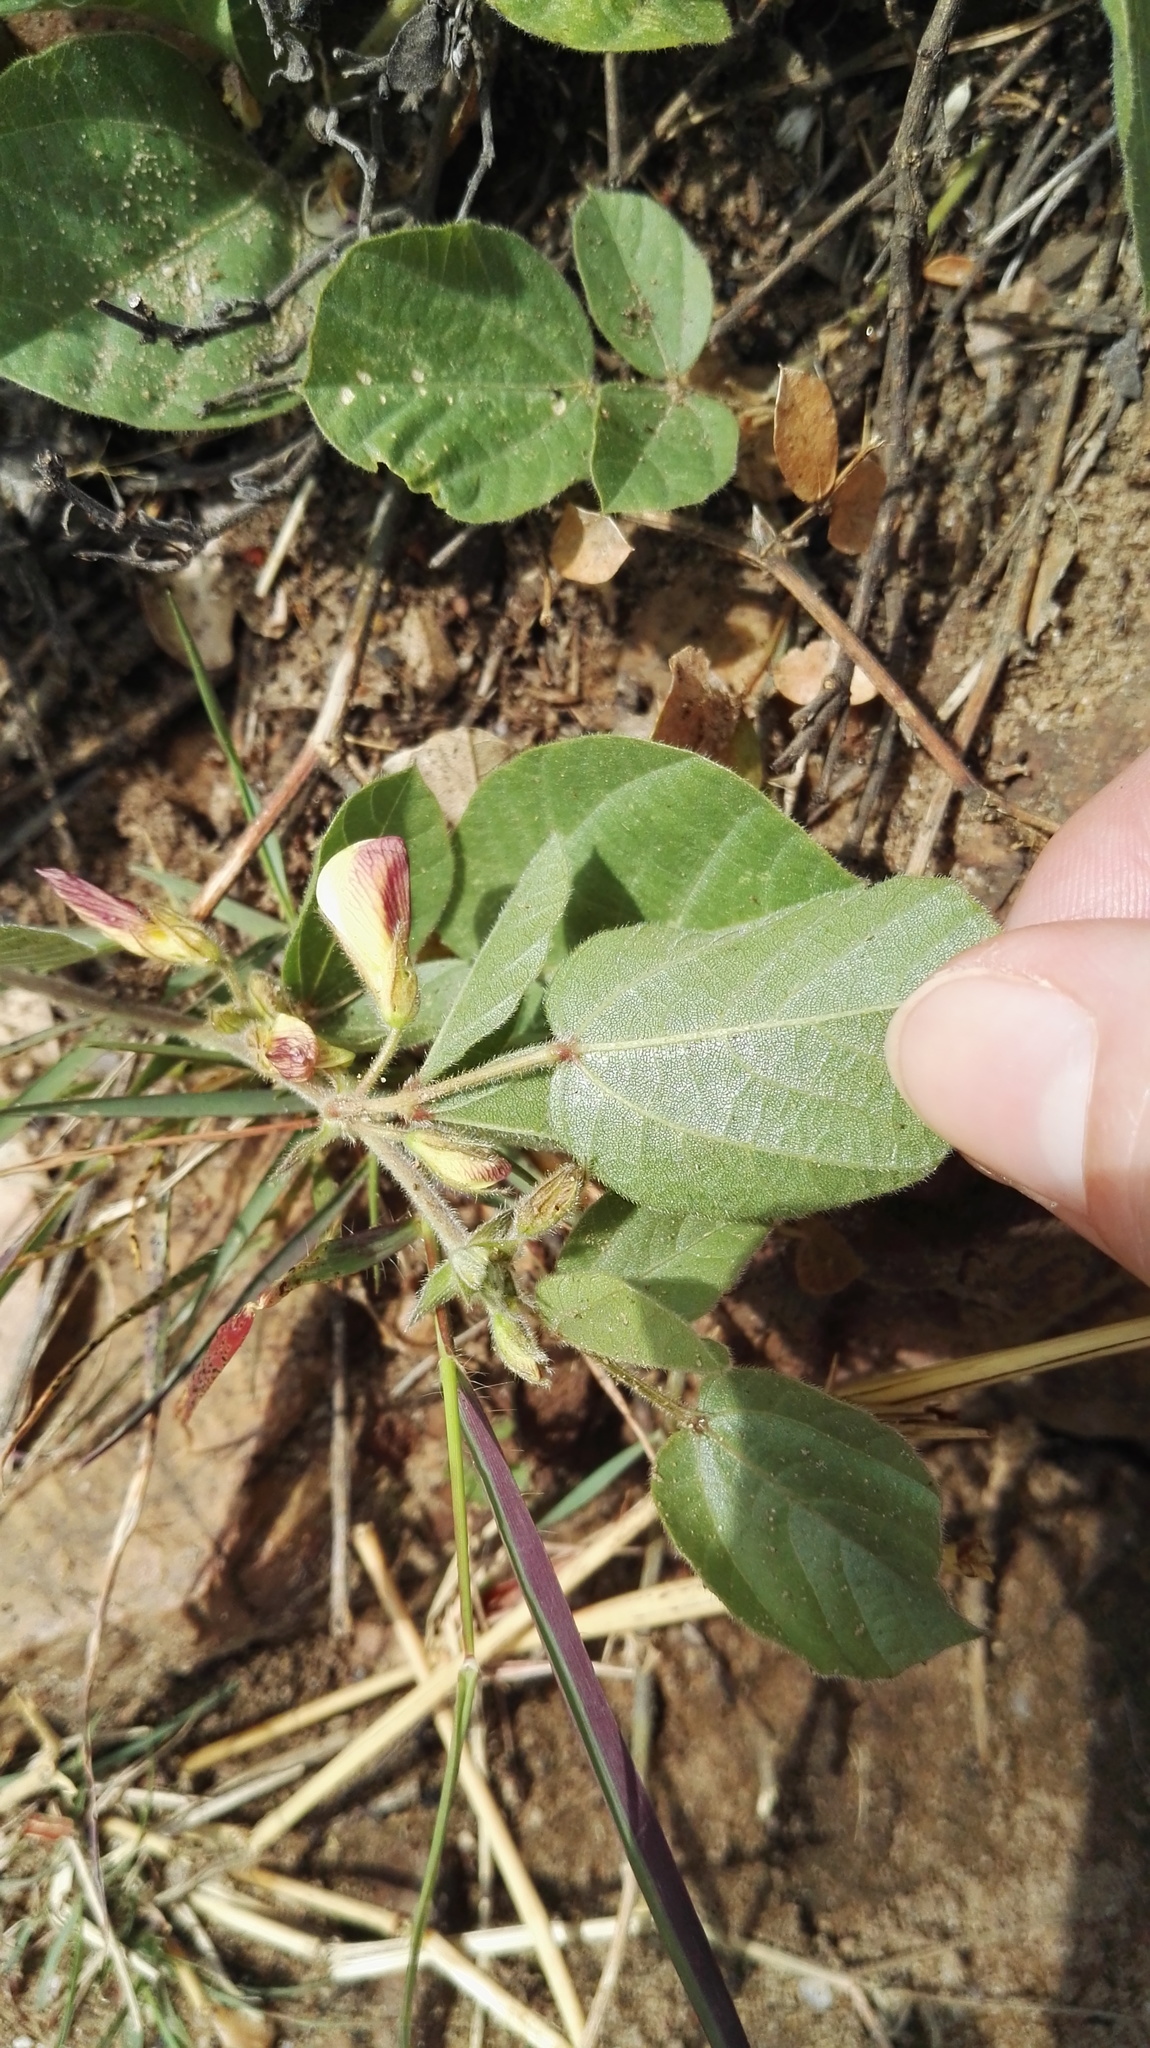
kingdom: Plantae
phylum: Tracheophyta
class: Magnoliopsida
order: Fabales
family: Fabaceae
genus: Rhynchosia
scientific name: Rhynchosia monophylla
